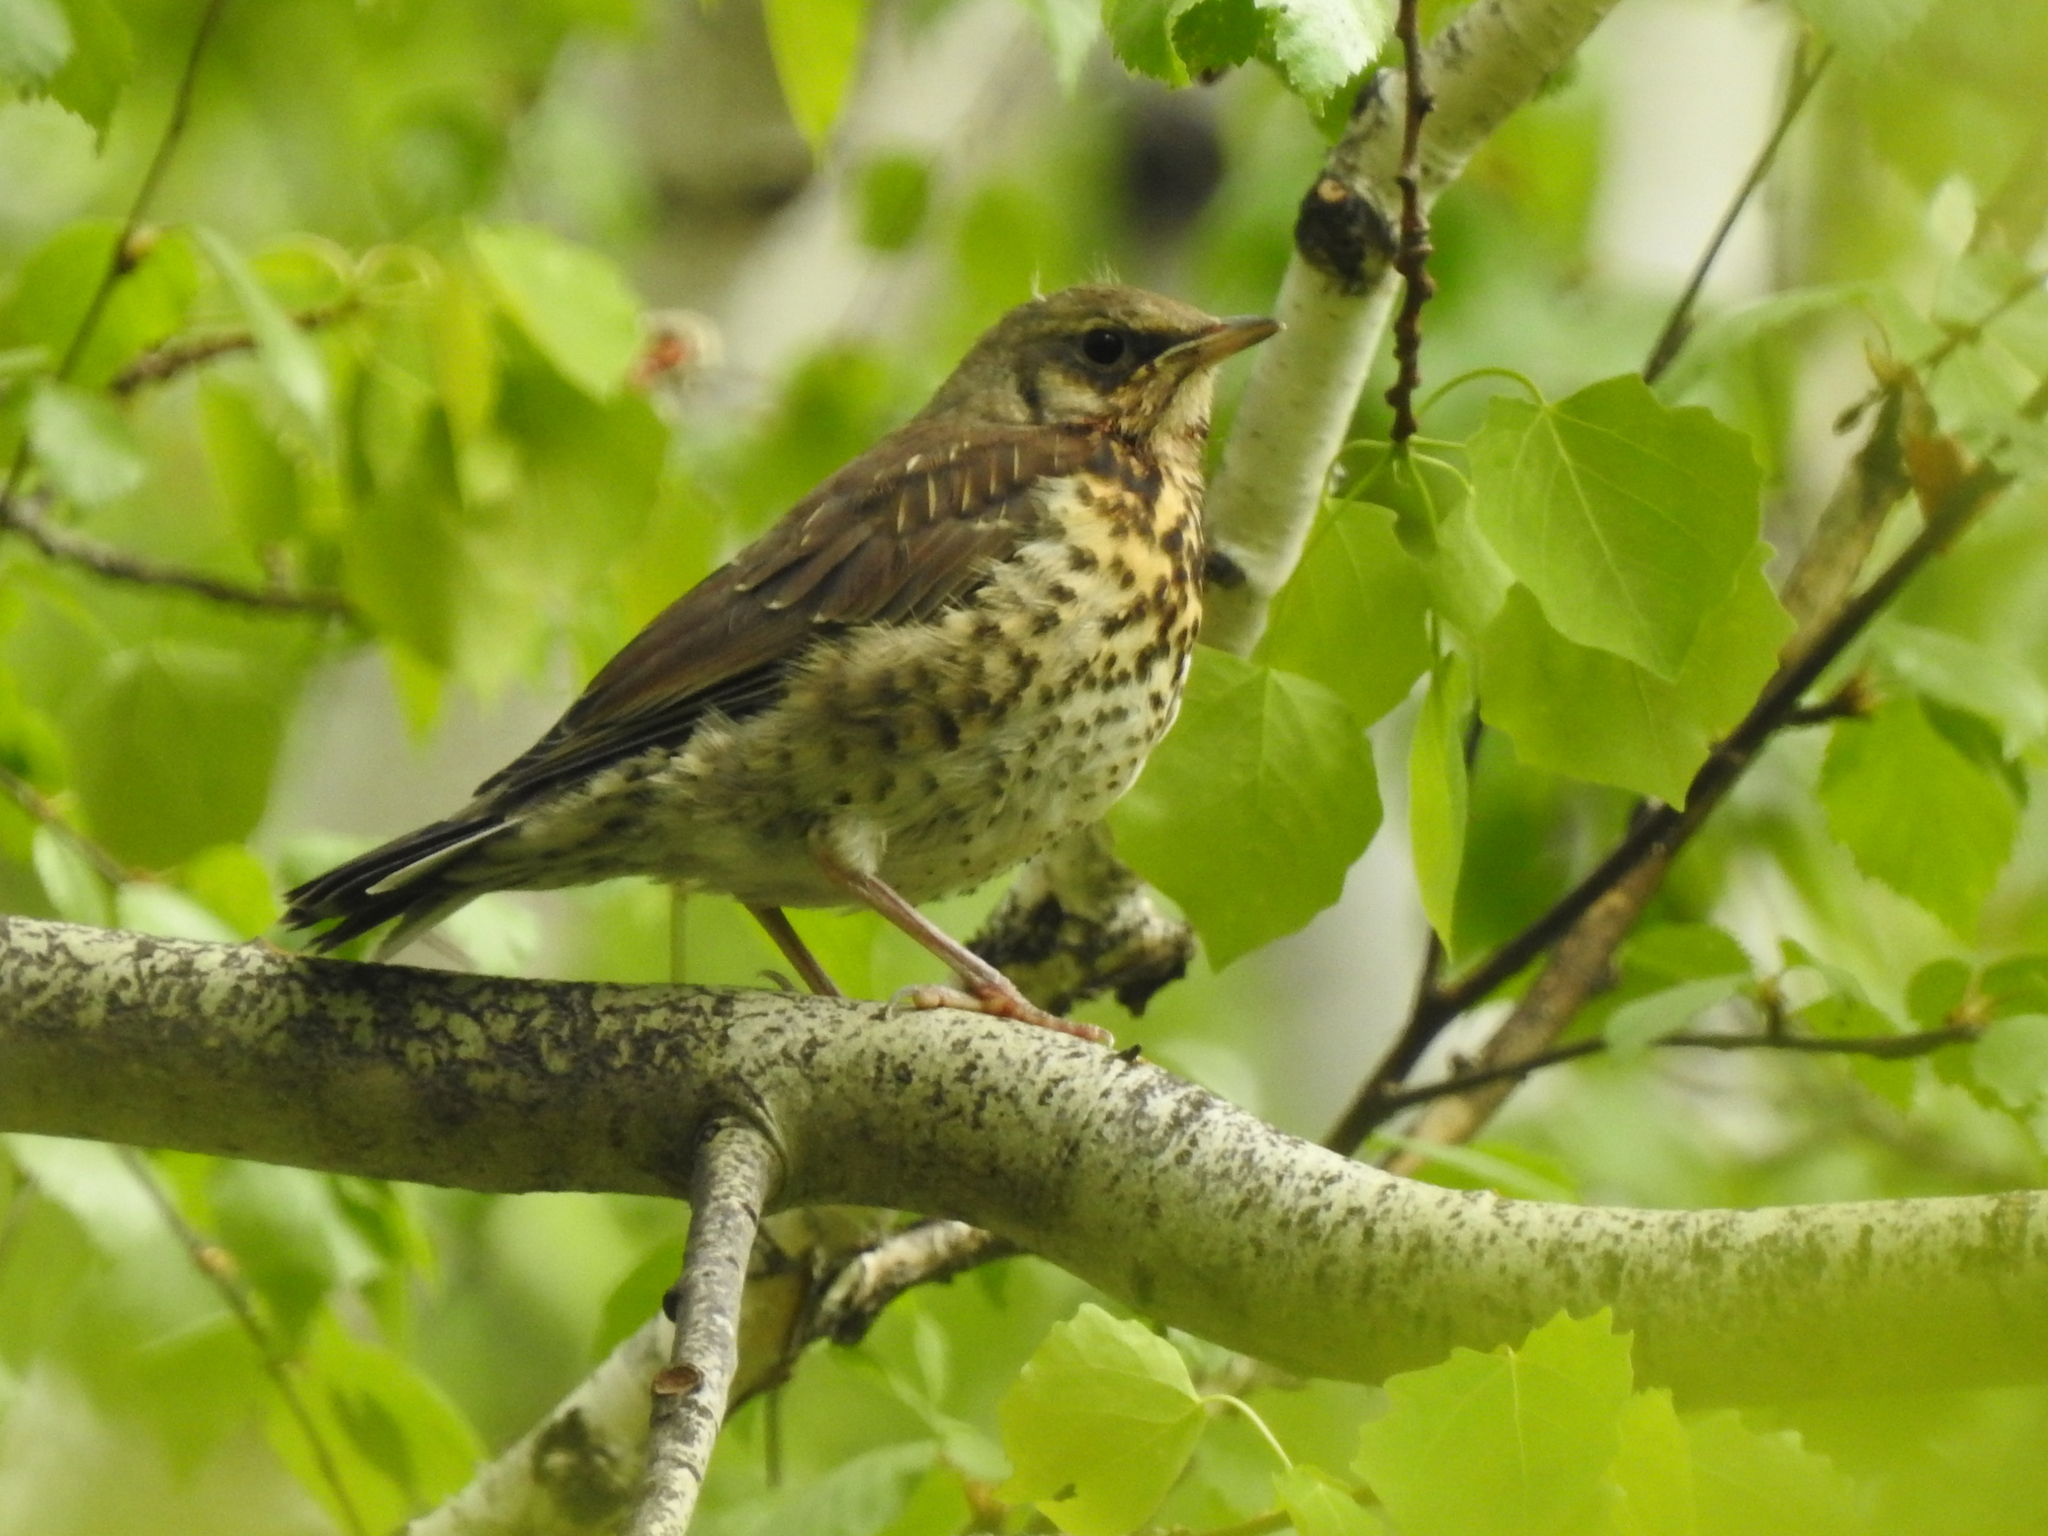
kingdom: Animalia
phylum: Chordata
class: Aves
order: Passeriformes
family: Turdidae
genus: Turdus
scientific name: Turdus pilaris
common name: Fieldfare
